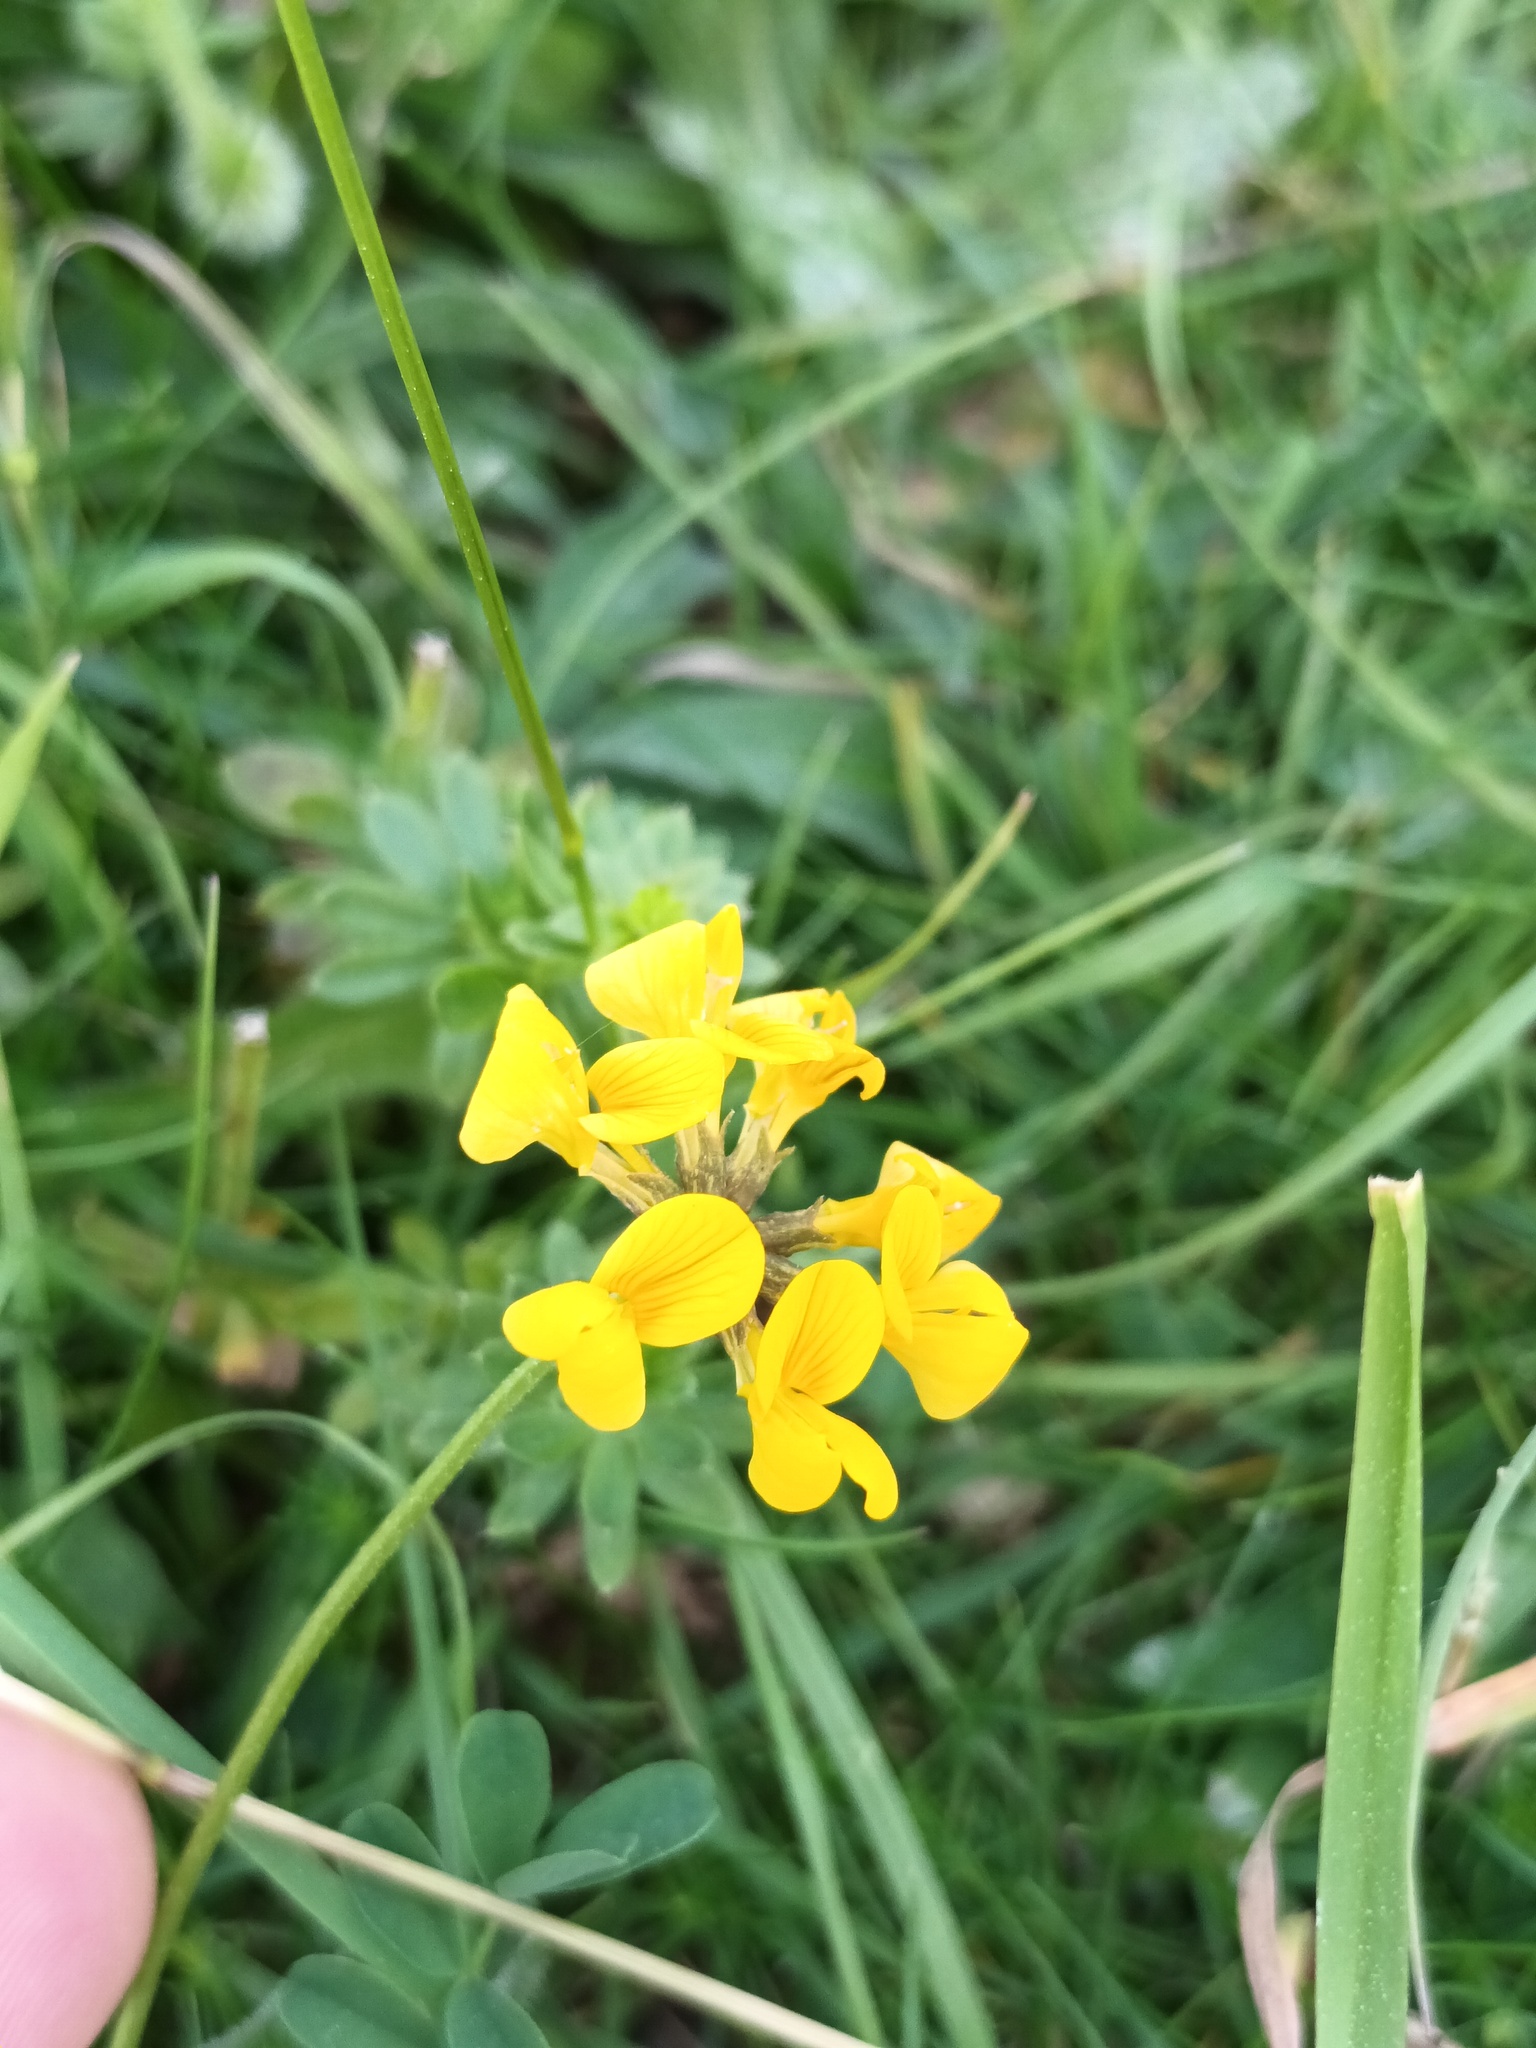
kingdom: Plantae
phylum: Tracheophyta
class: Magnoliopsida
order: Fabales
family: Fabaceae
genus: Hippocrepis
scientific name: Hippocrepis comosa
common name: Horseshoe vetch
